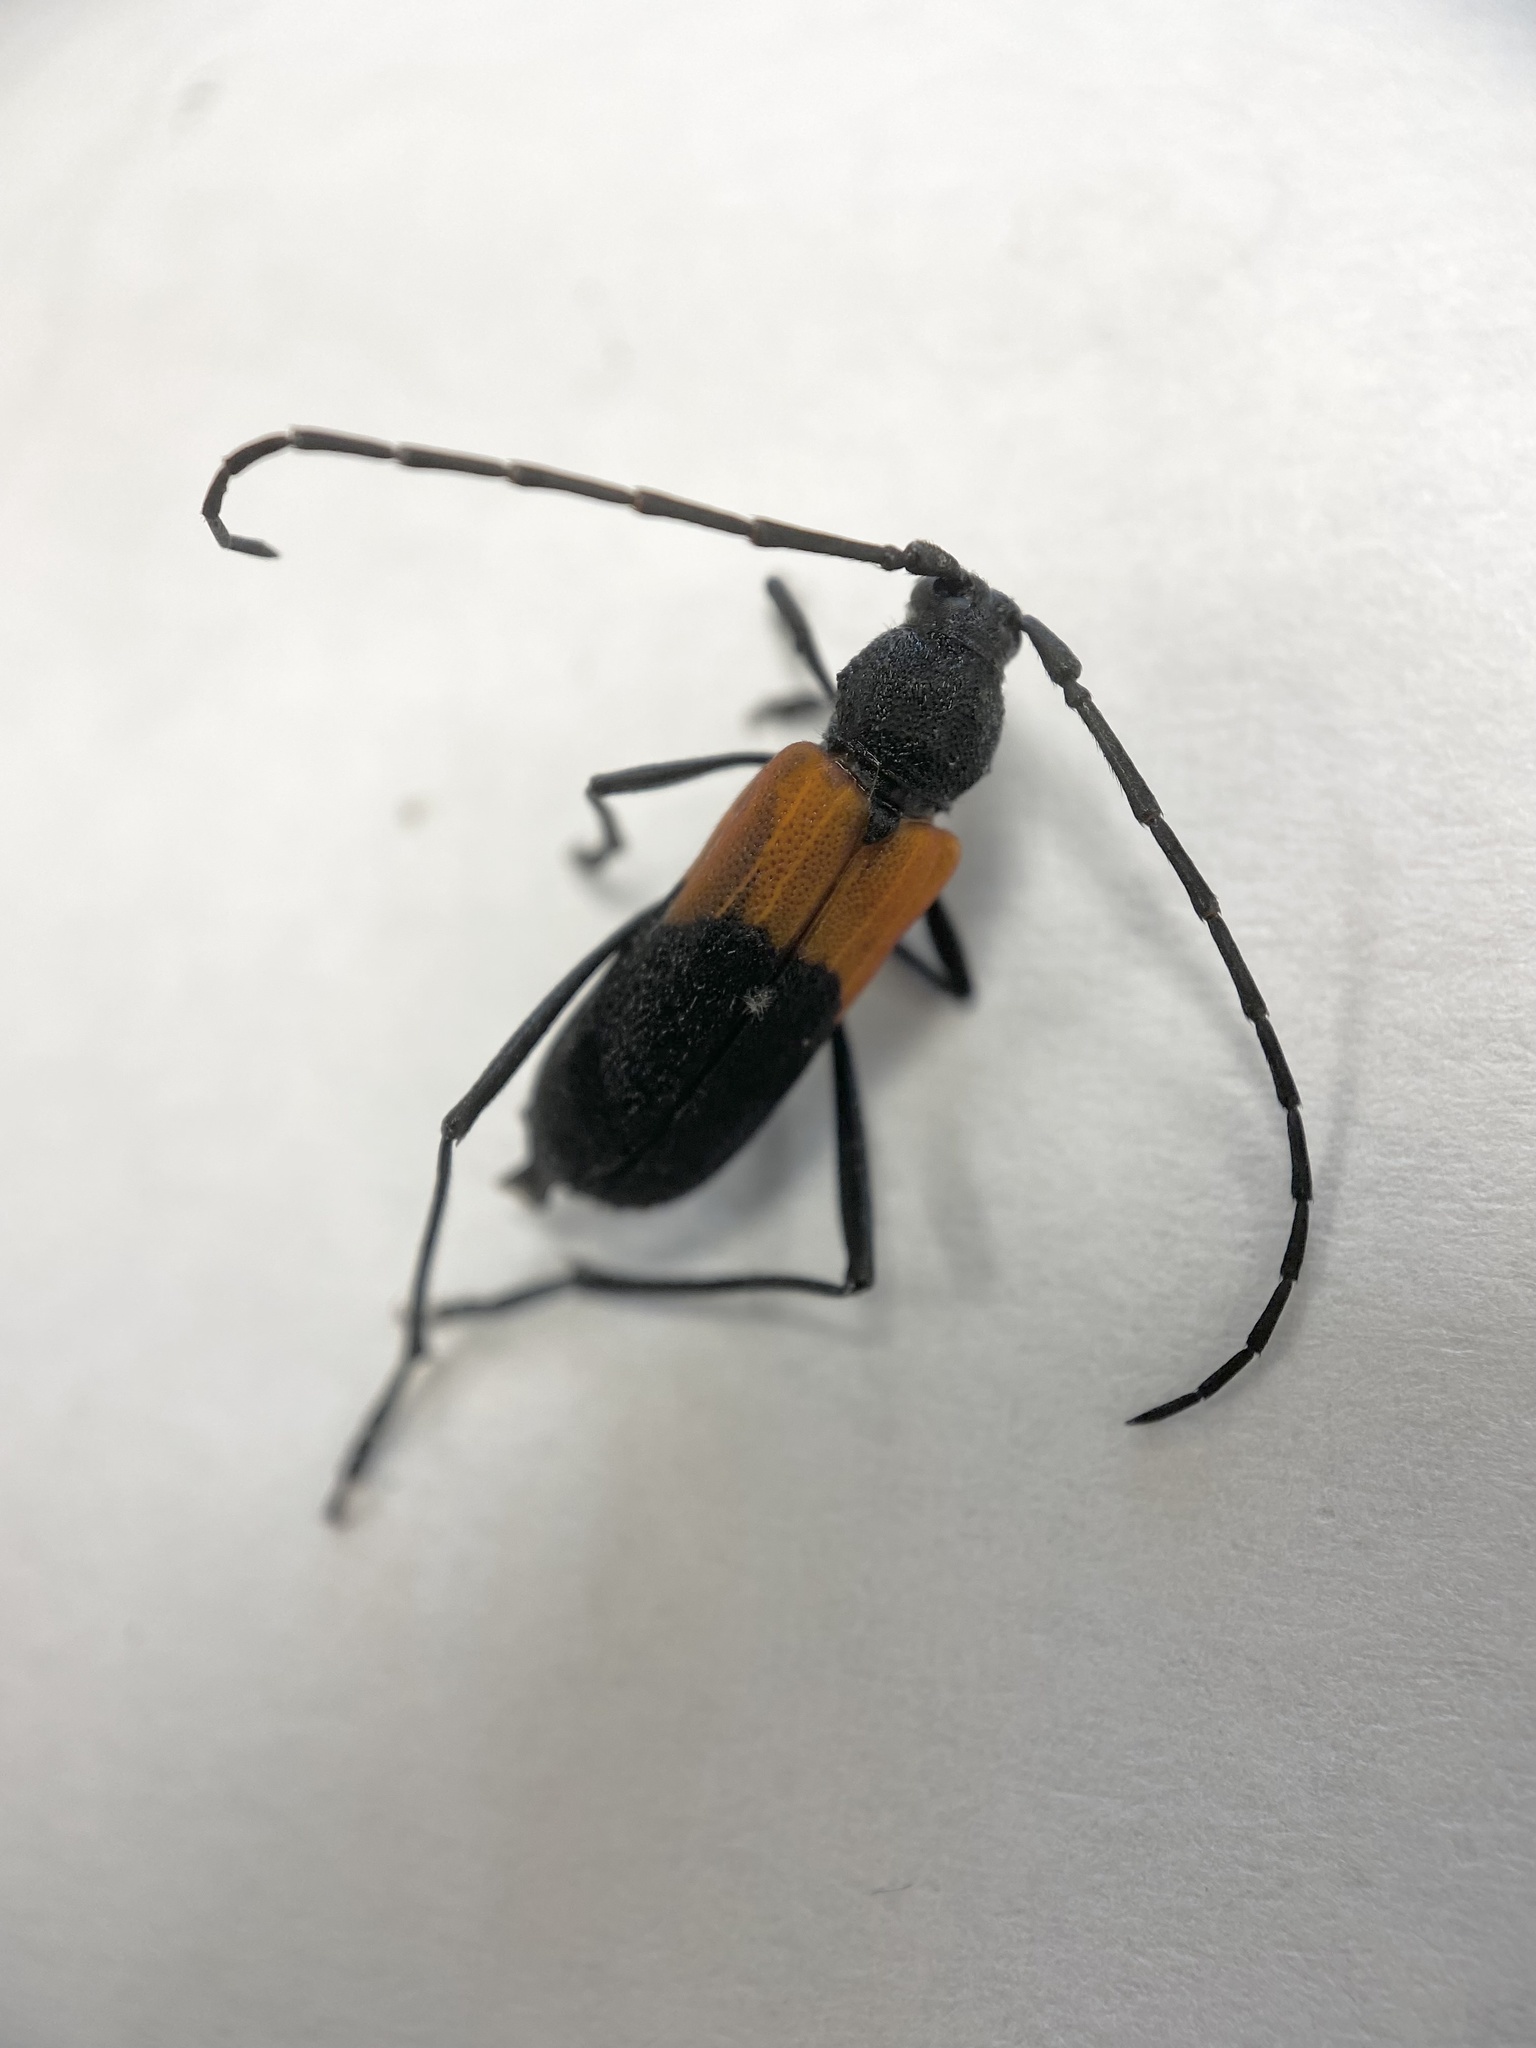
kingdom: Animalia
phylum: Arthropoda
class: Insecta
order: Coleoptera
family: Cerambycidae
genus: Purpuricenus
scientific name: Purpuricenus axillaris
